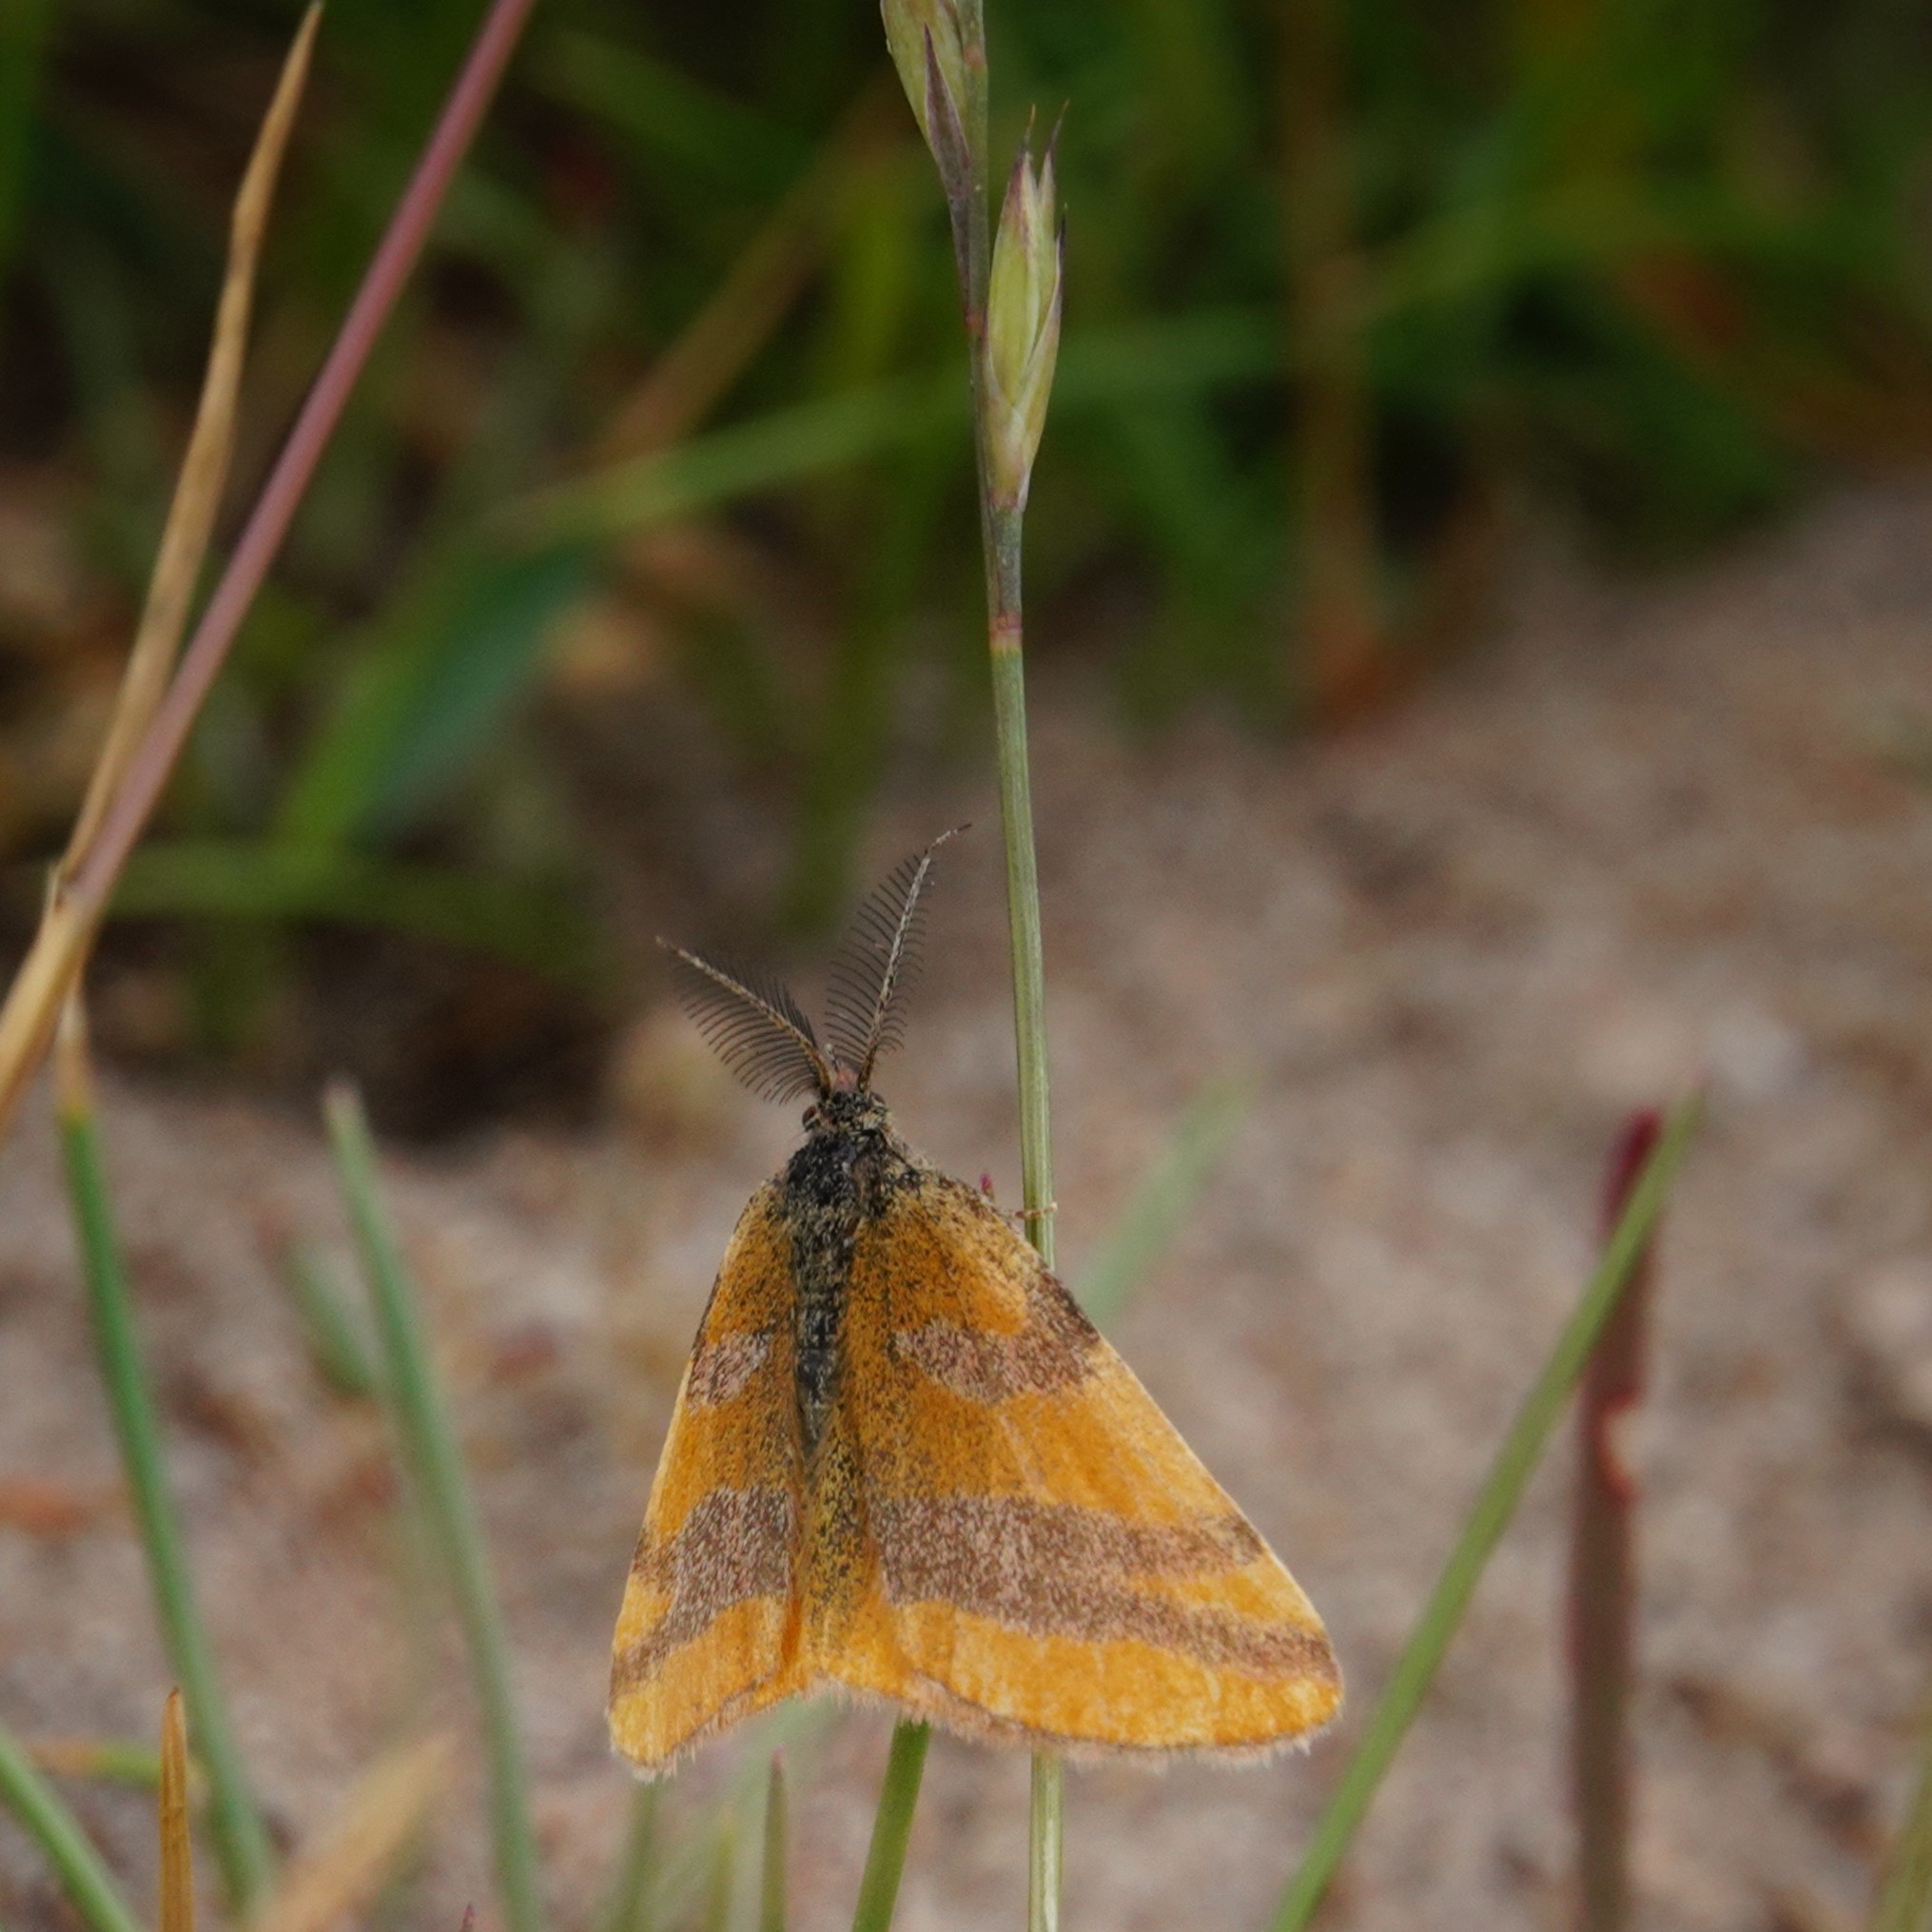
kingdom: Animalia
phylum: Arthropoda
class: Insecta
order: Lepidoptera
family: Geometridae
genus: Lythria
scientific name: Lythria cruentaria
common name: Purple-barred yellow
